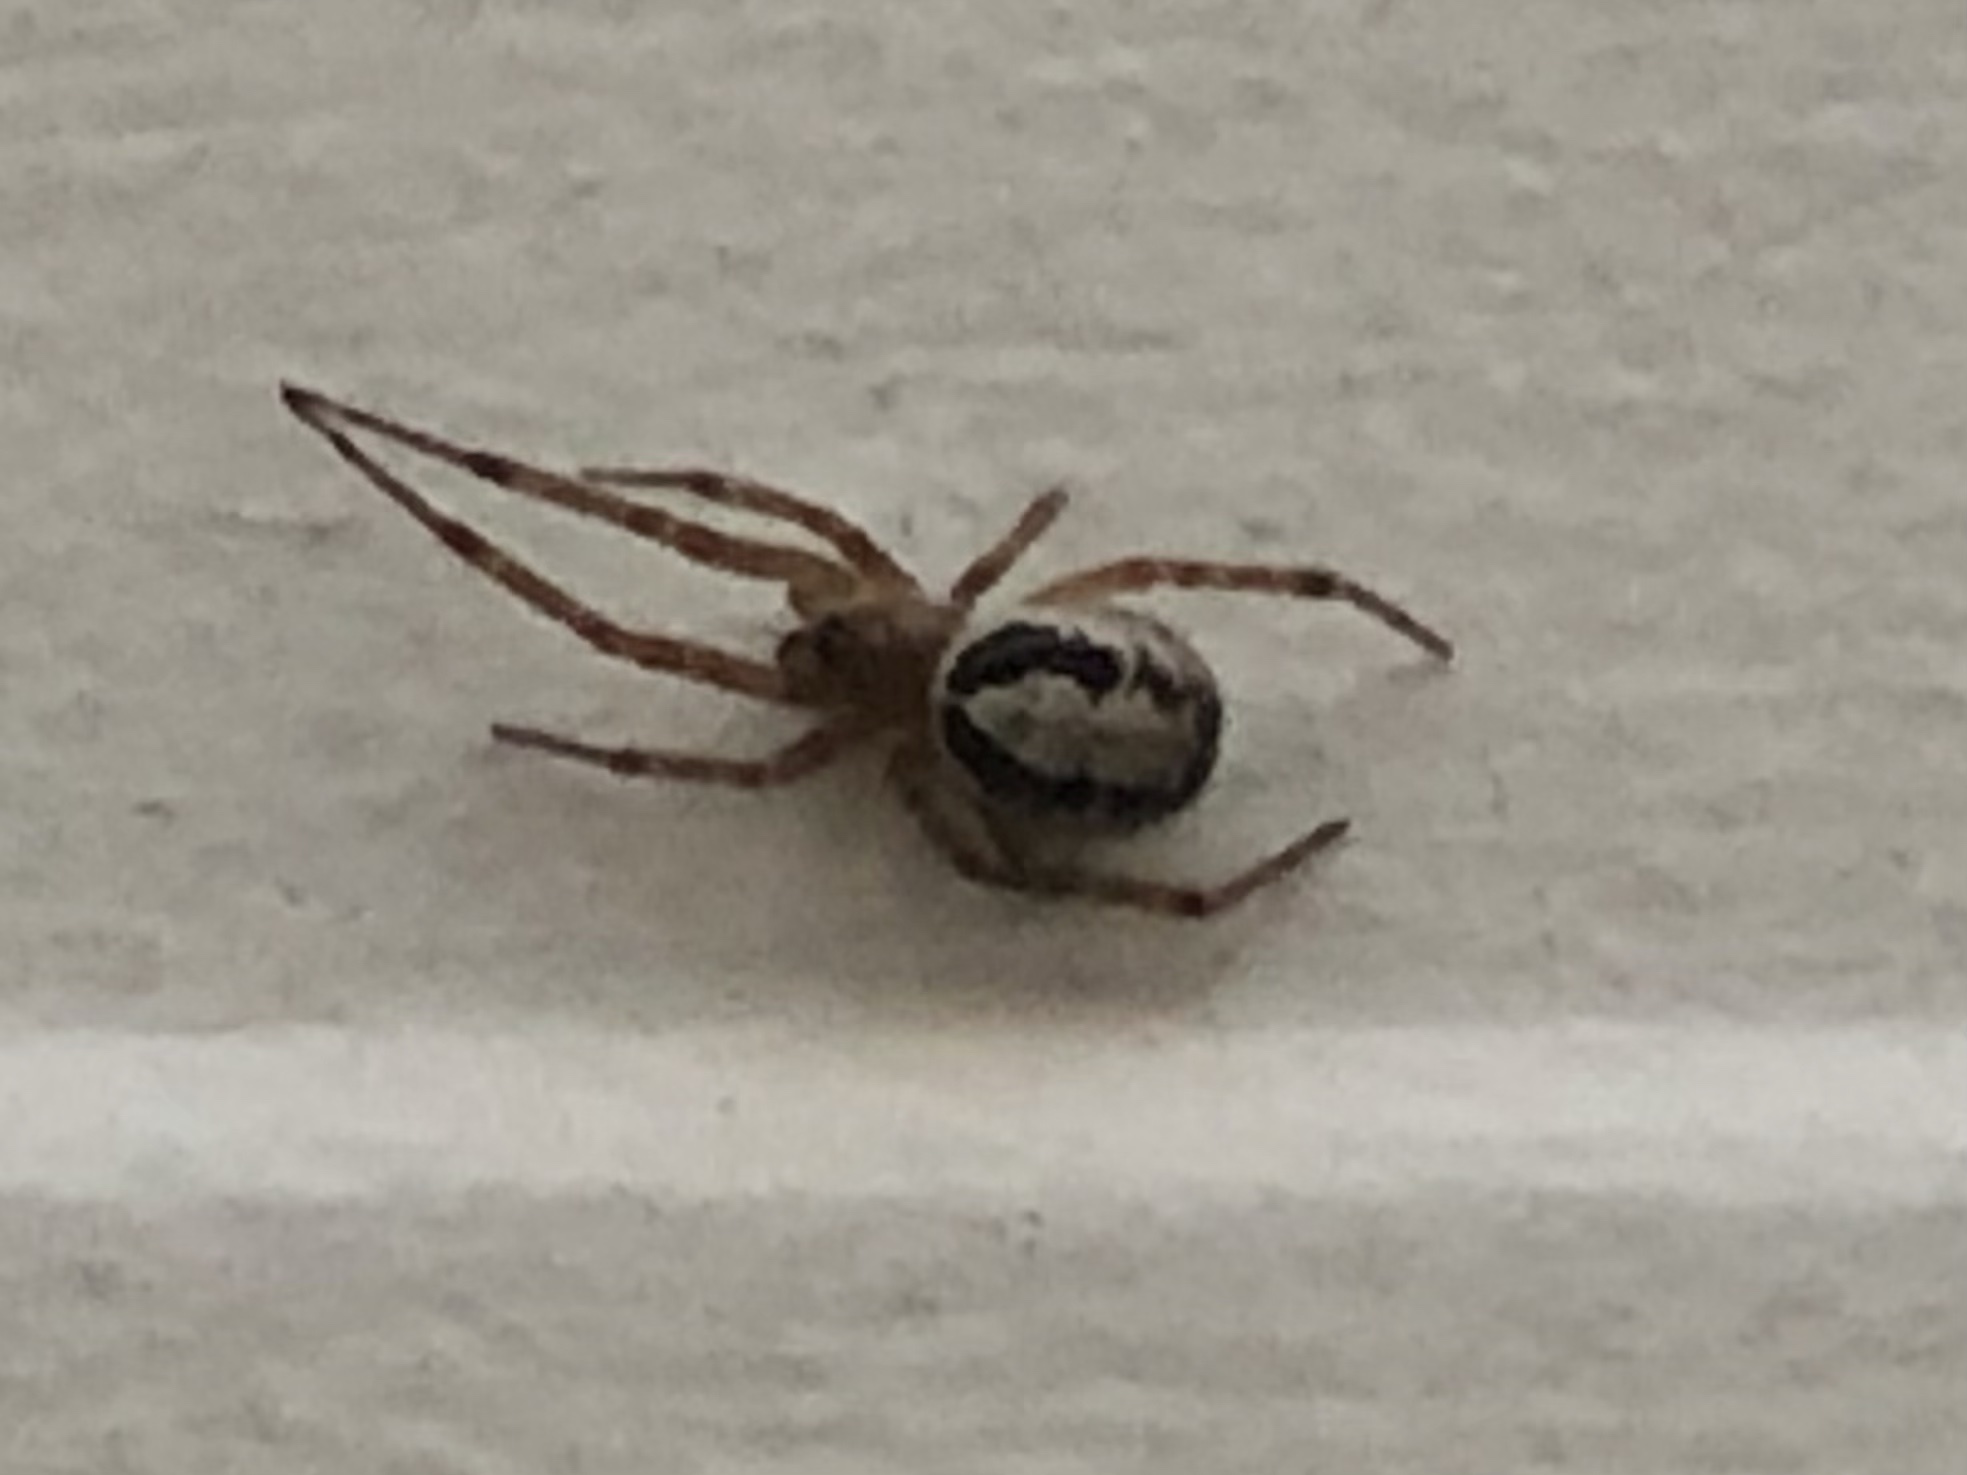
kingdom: Animalia
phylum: Arthropoda
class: Arachnida
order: Araneae
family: Theridiidae
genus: Steatoda
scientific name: Steatoda nobilis
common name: Cobweb weaver
